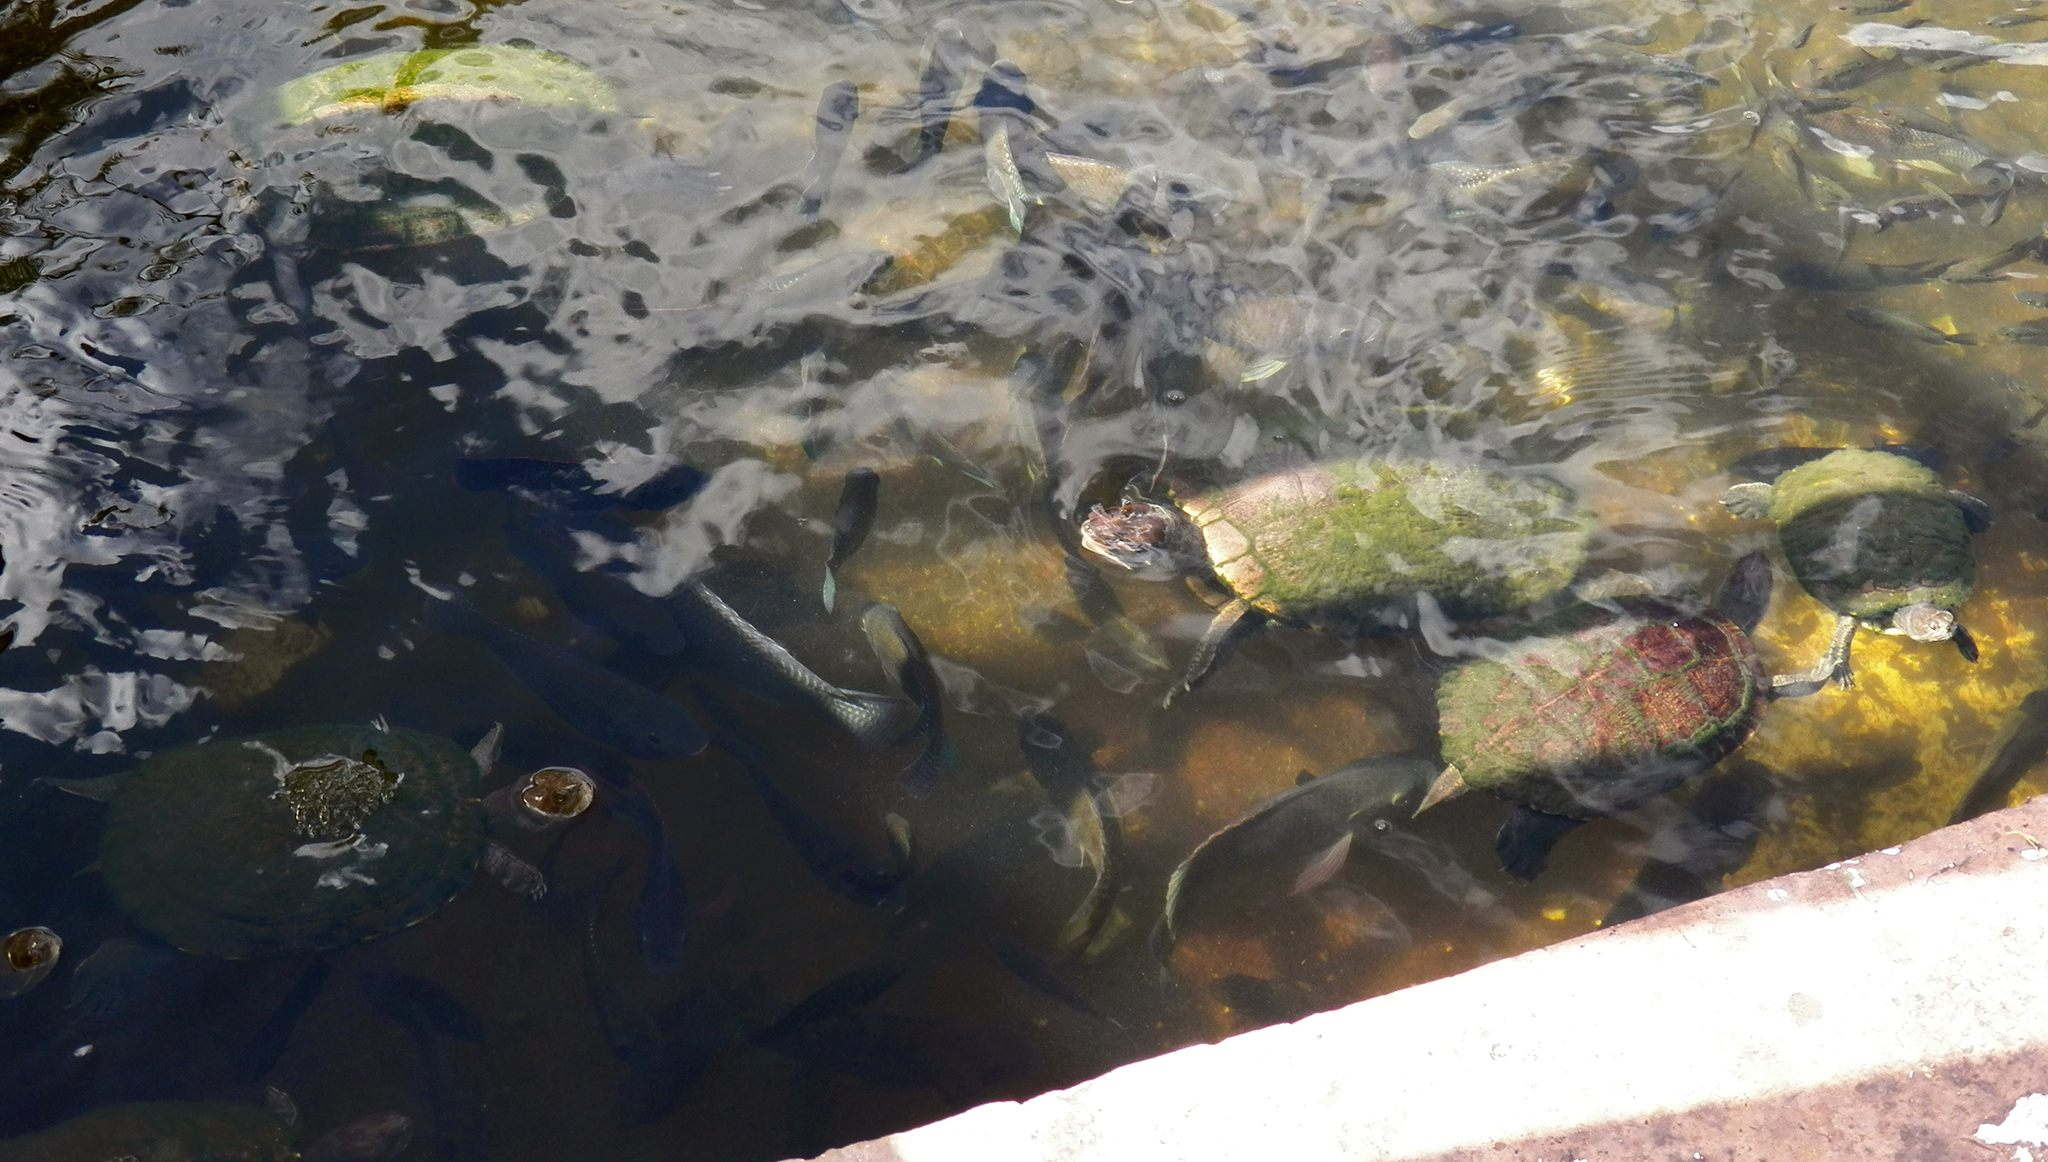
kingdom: Animalia
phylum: Chordata
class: Testudines
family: Emydidae
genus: Trachemys
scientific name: Trachemys terrapen
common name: Jamaican slider
